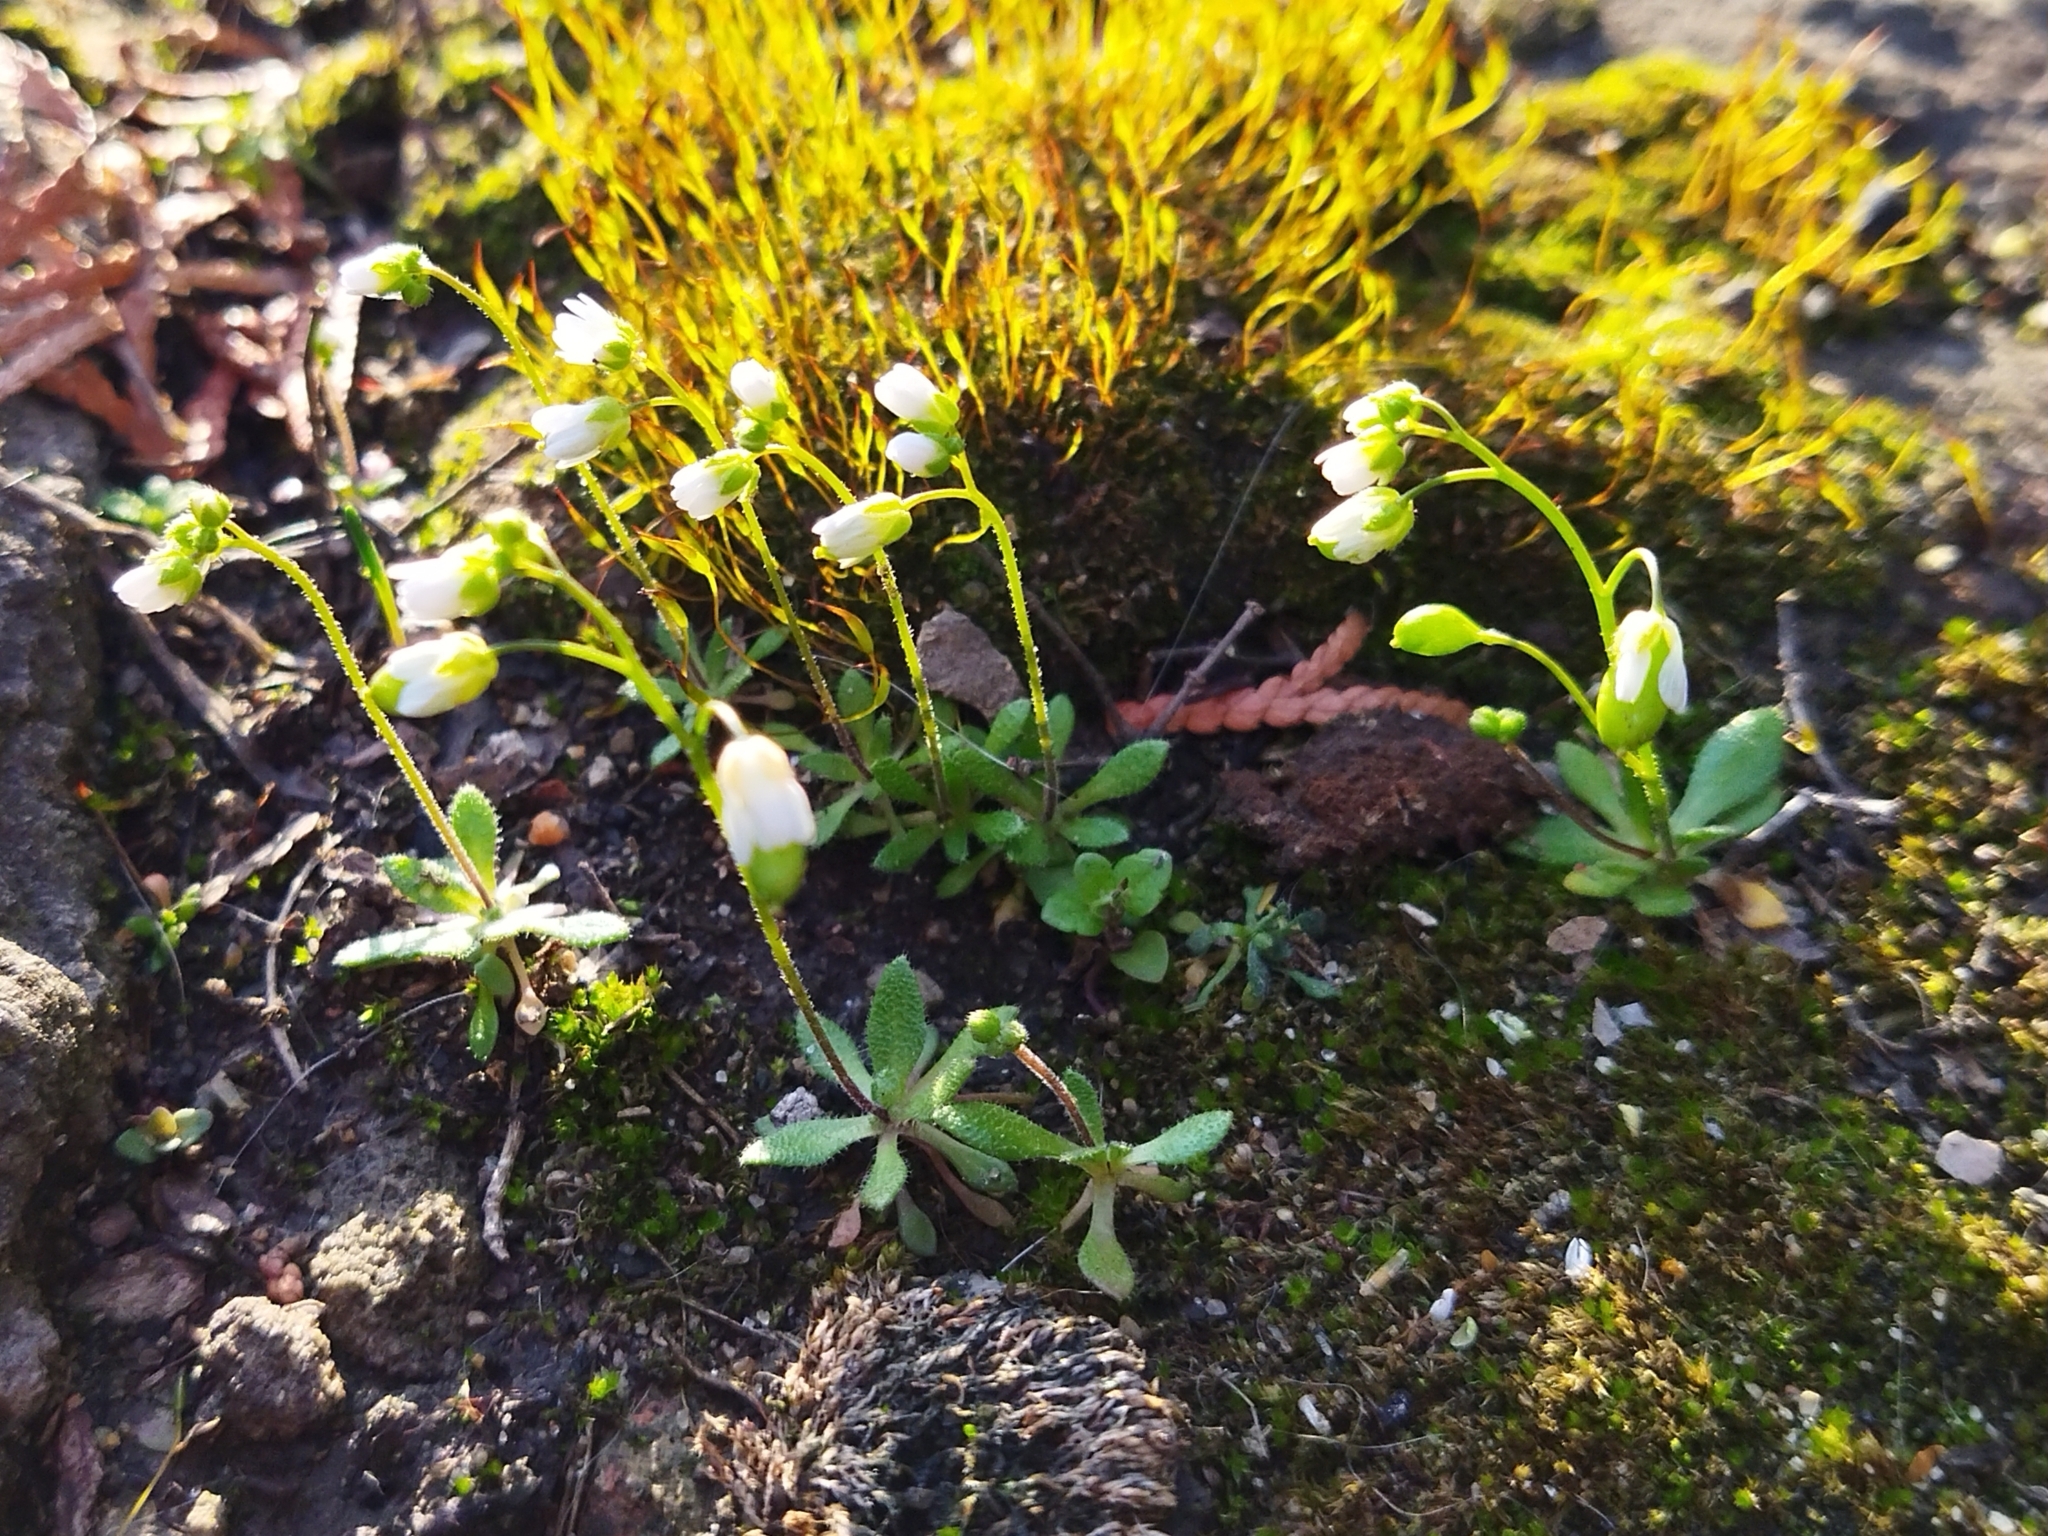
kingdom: Plantae
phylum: Tracheophyta
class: Magnoliopsida
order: Brassicales
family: Brassicaceae
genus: Draba
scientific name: Draba verna
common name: Spring draba
